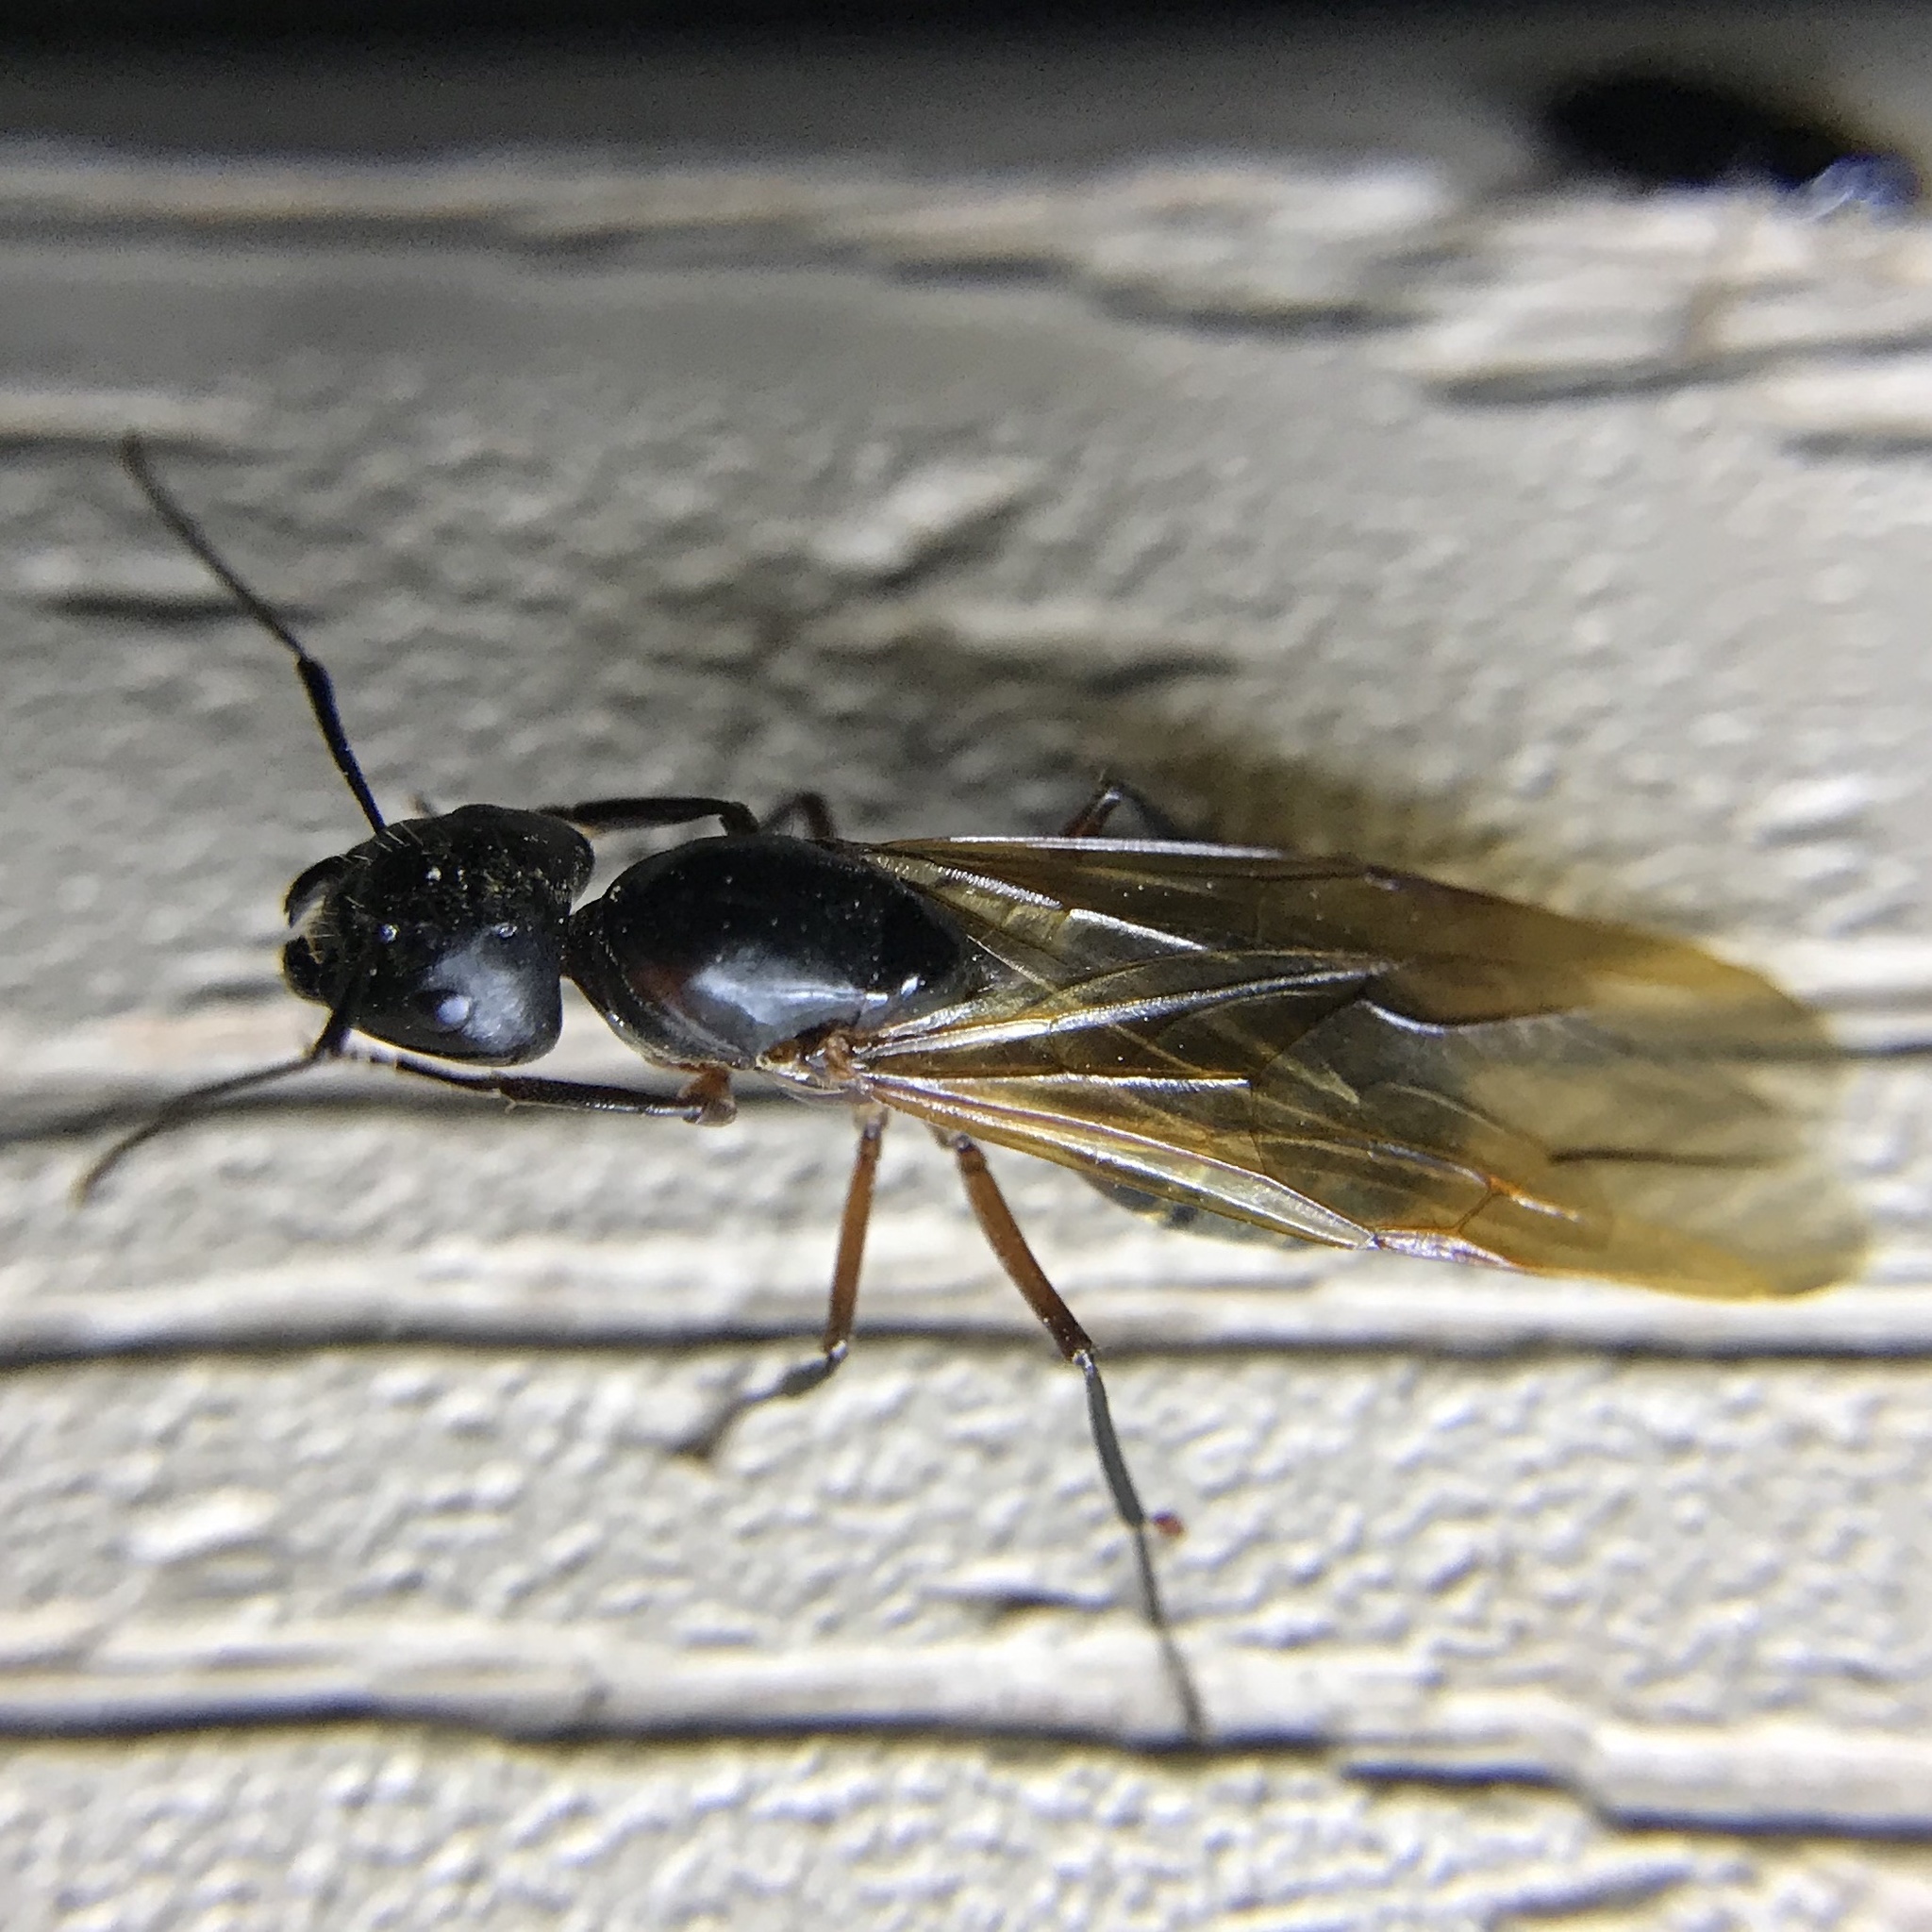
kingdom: Animalia
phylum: Arthropoda
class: Insecta
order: Hymenoptera
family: Formicidae
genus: Camponotus
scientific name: Camponotus pennsylvanicus
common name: Black carpenter ant
